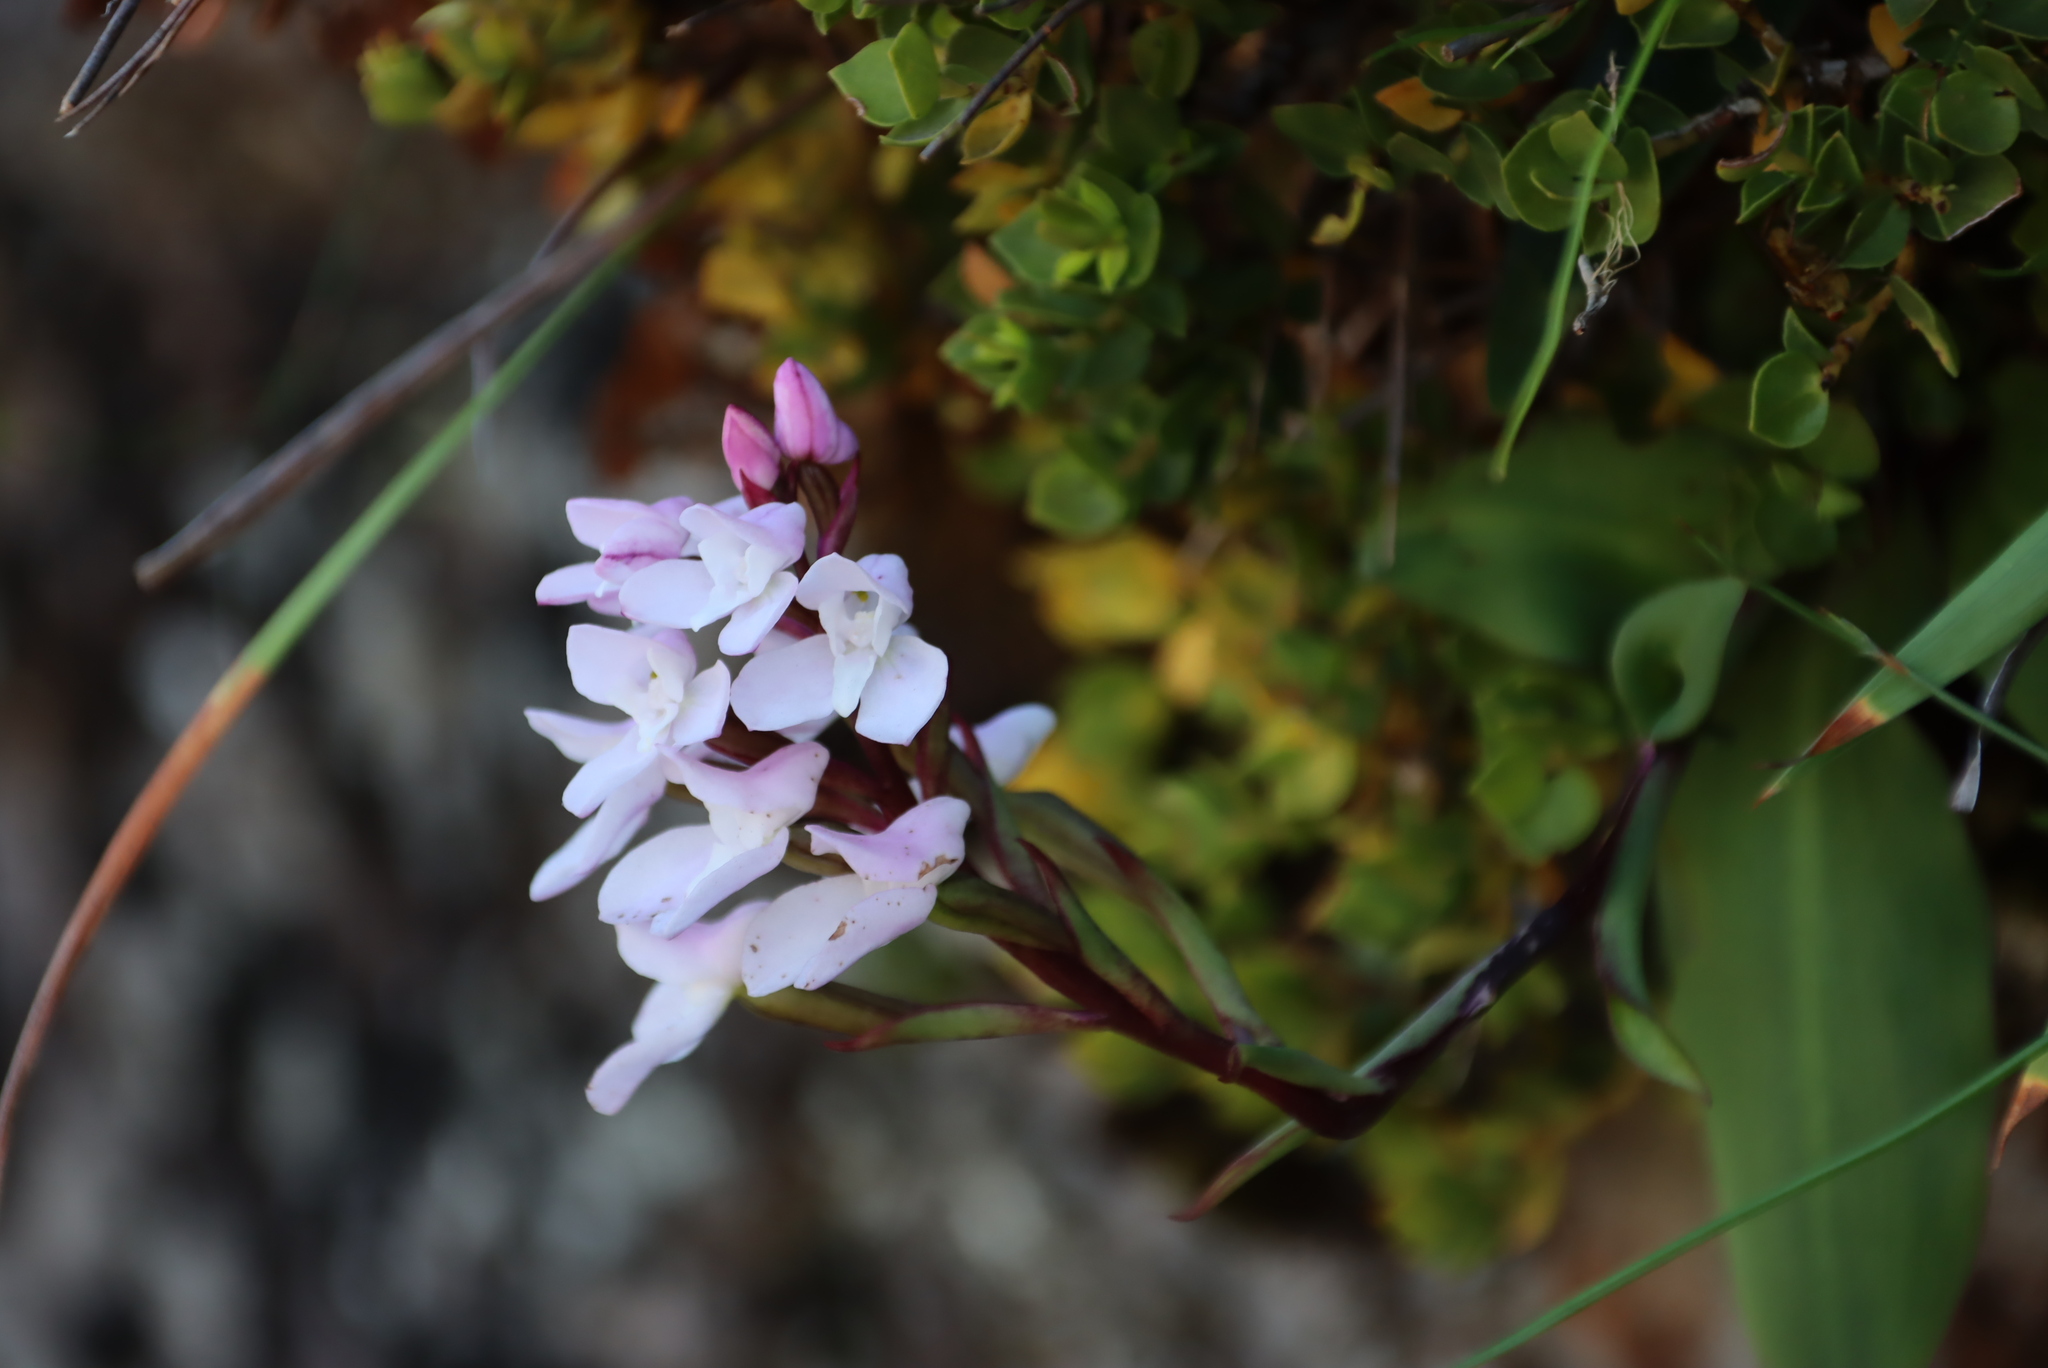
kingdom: Plantae
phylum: Tracheophyta
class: Liliopsida
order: Asparagales
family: Orchidaceae
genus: Disa
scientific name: Disa rosea
